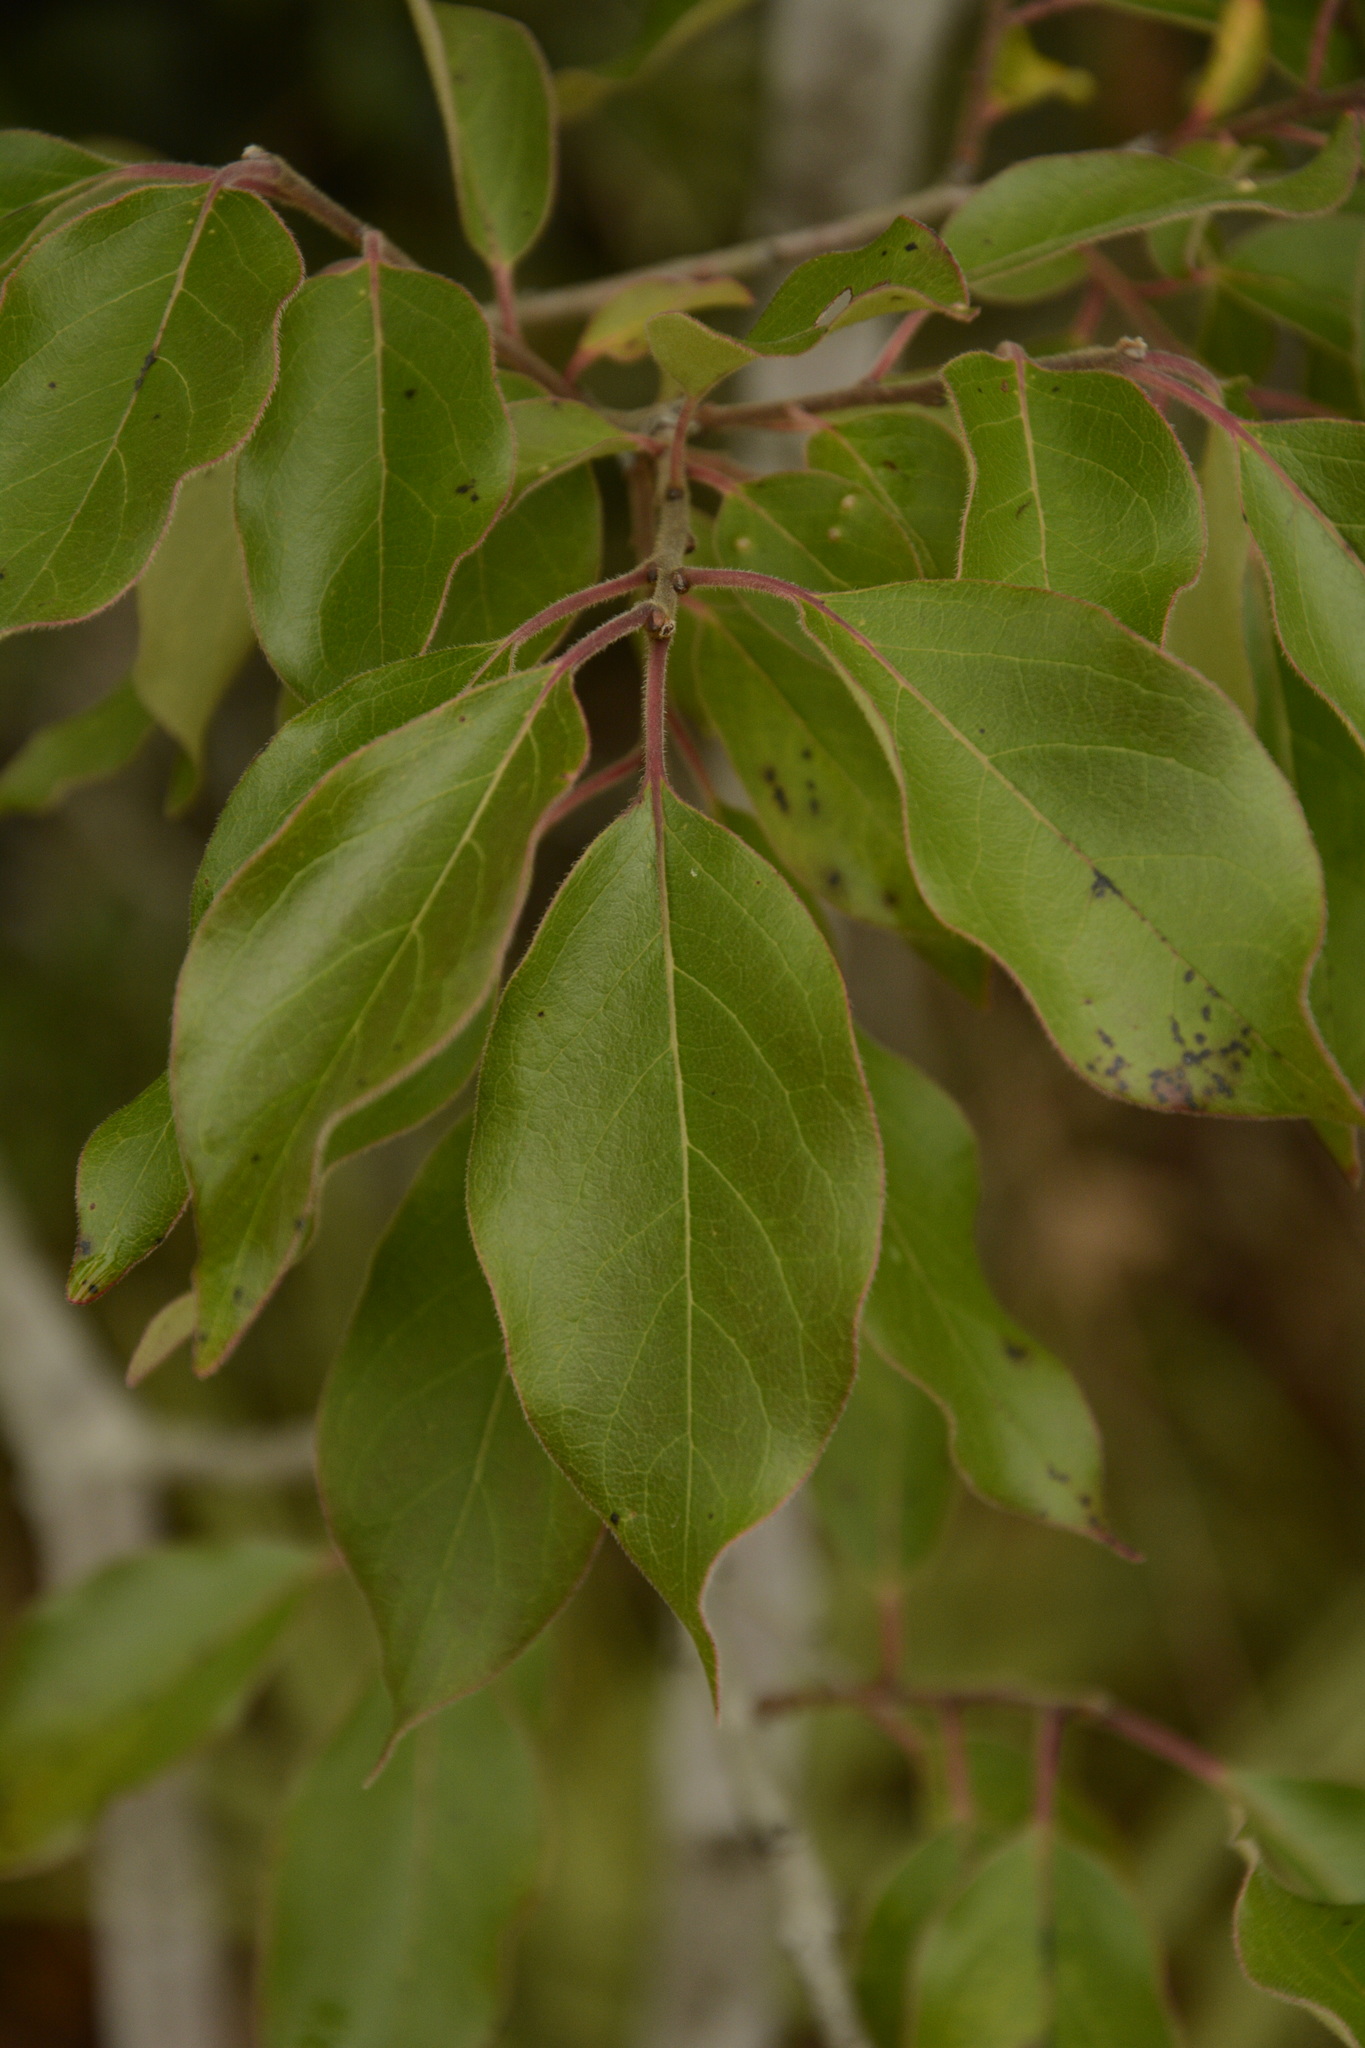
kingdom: Plantae
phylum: Tracheophyta
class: Magnoliopsida
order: Ericales
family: Ebenaceae
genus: Diospyros
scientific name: Diospyros virginiana
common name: Persimmon
